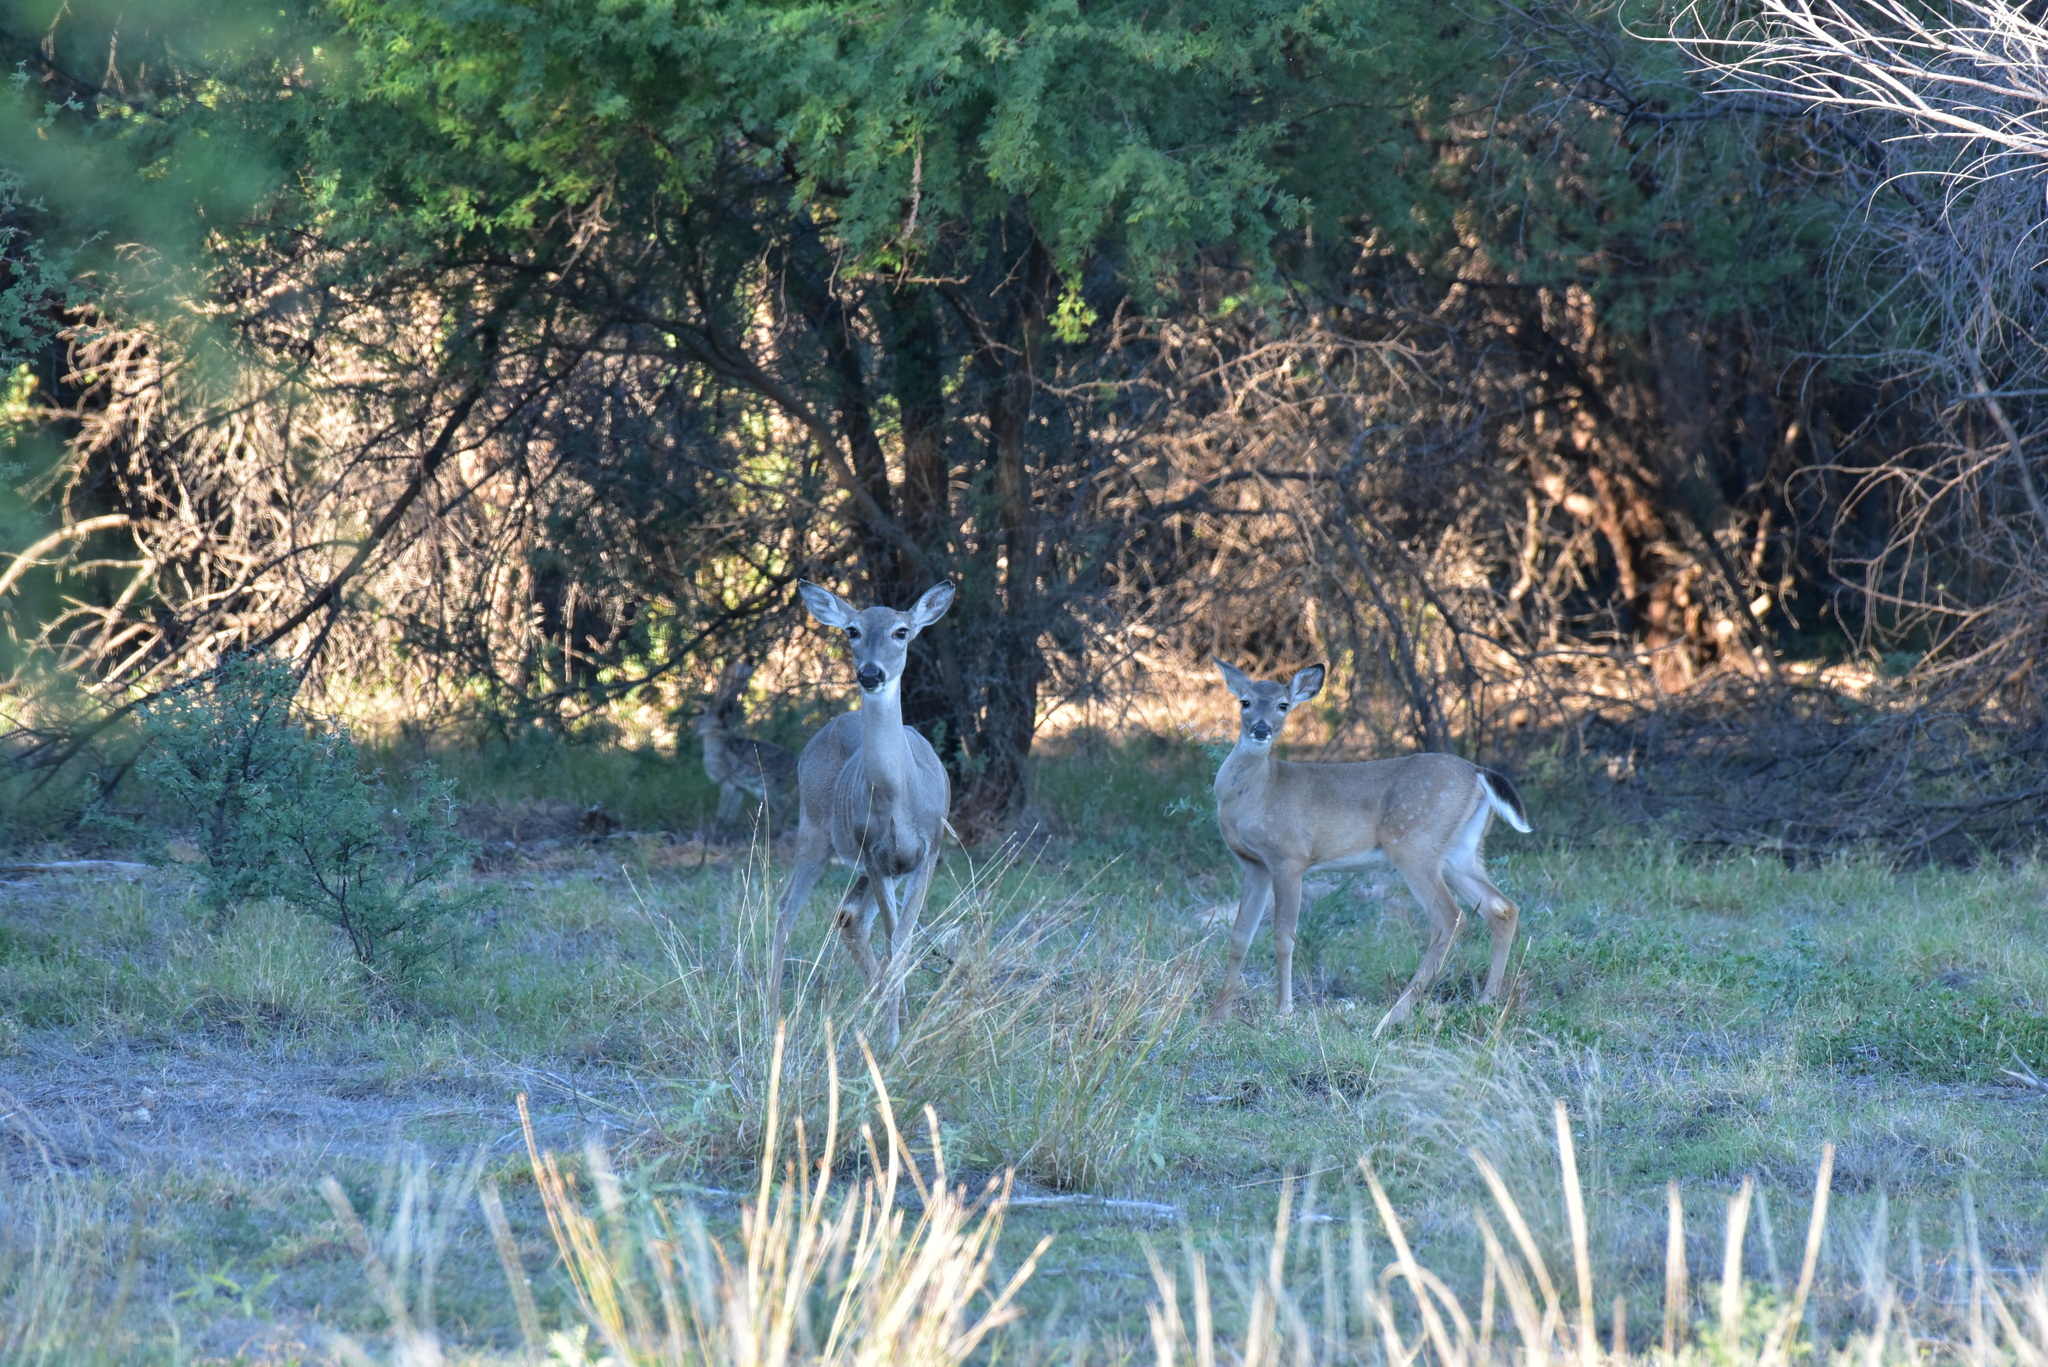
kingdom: Animalia
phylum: Chordata
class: Mammalia
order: Artiodactyla
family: Cervidae
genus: Odocoileus
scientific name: Odocoileus virginianus
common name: White-tailed deer
